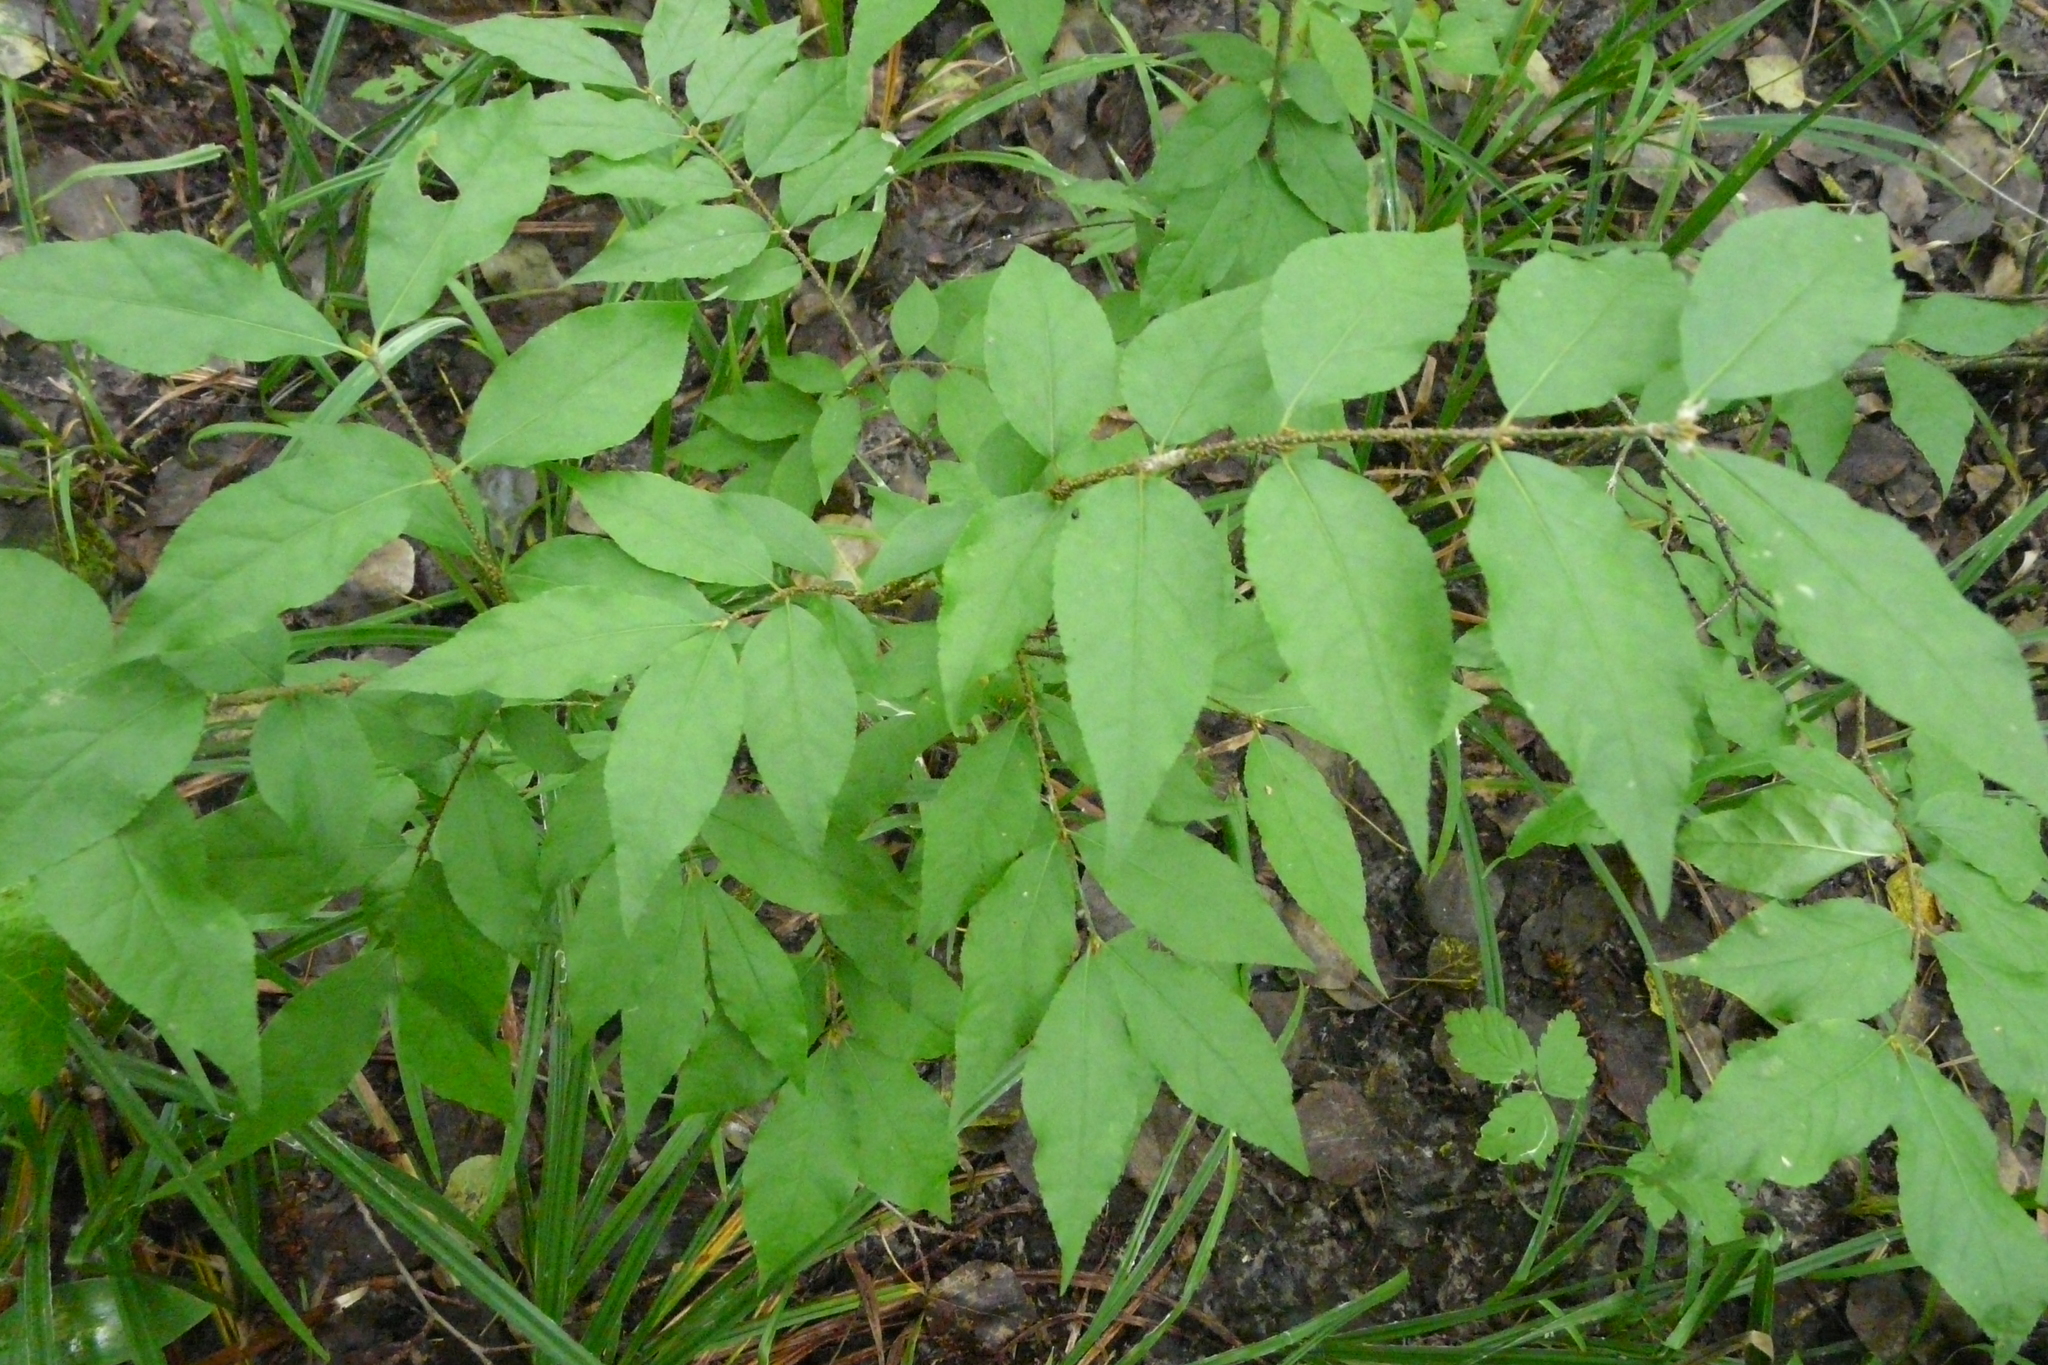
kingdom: Plantae
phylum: Tracheophyta
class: Magnoliopsida
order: Celastrales
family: Celastraceae
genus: Euonymus
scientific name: Euonymus verrucosus
